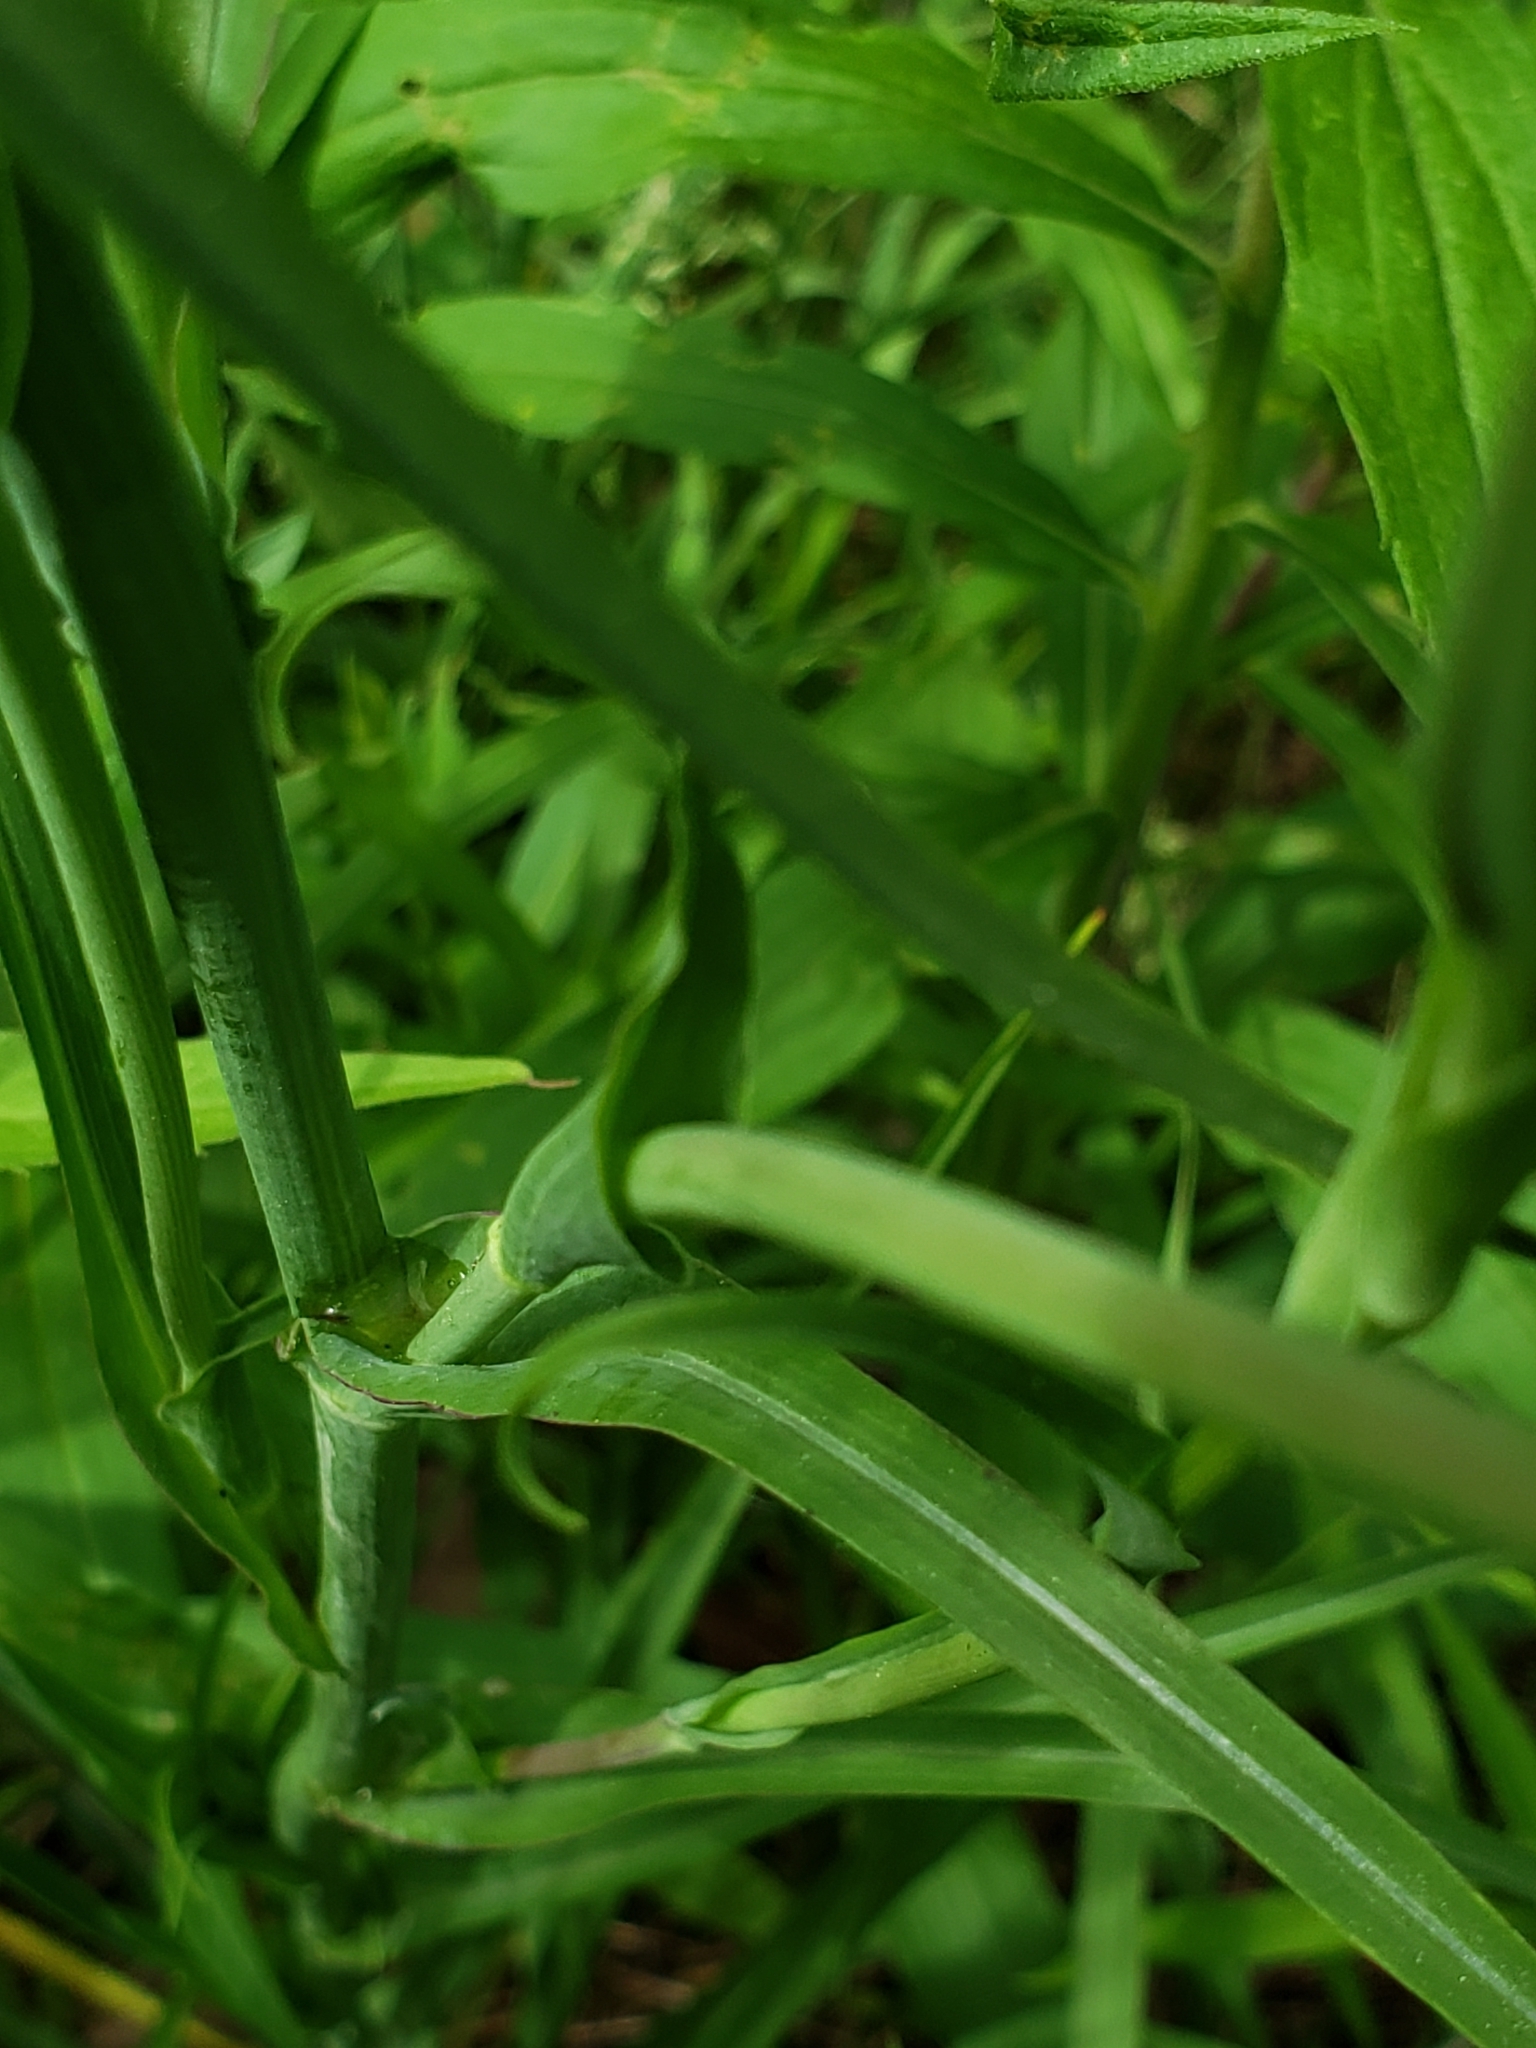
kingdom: Plantae
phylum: Tracheophyta
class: Magnoliopsida
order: Asterales
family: Asteraceae
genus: Tragopogon
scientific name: Tragopogon pratensis
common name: Goat's-beard
